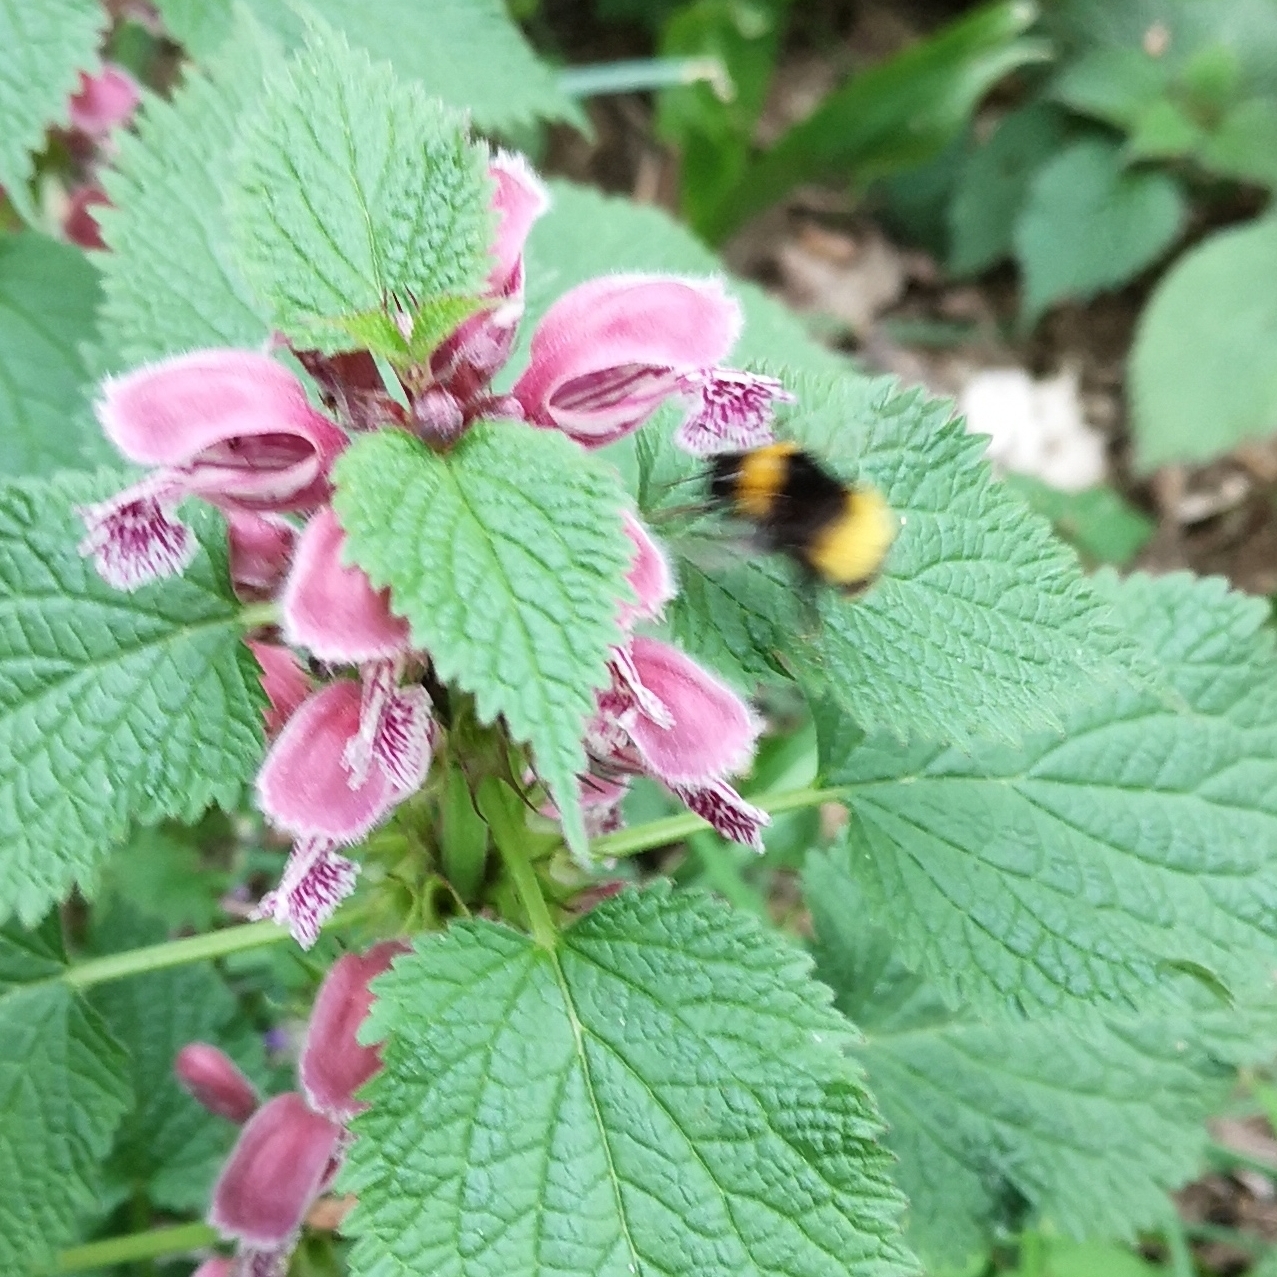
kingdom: Animalia
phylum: Arthropoda
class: Insecta
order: Hymenoptera
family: Apidae
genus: Bombus
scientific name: Bombus haematurus
